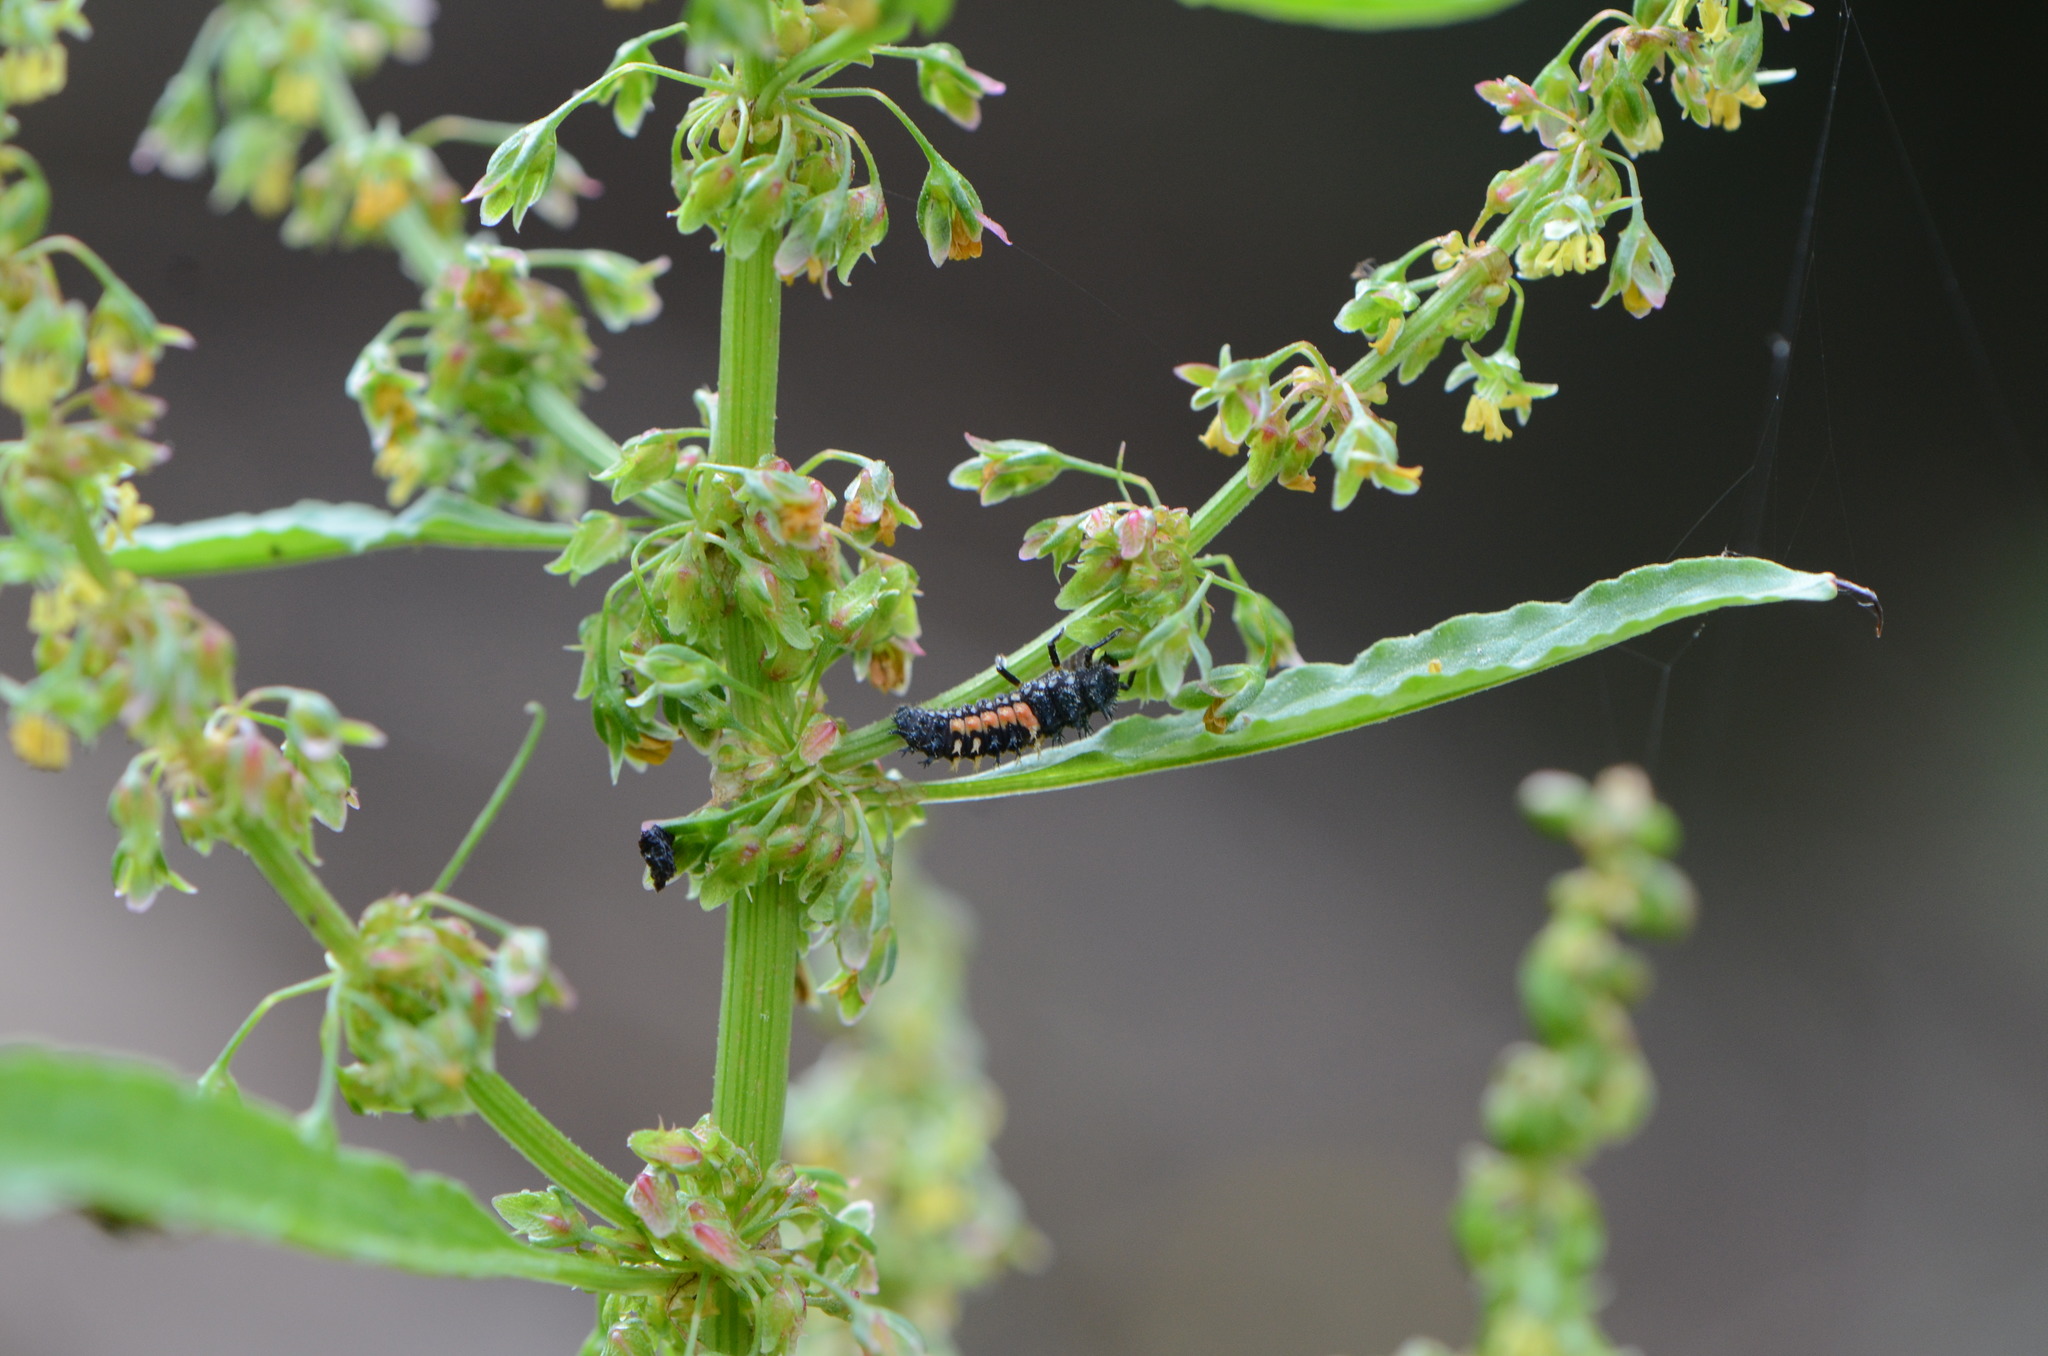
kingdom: Animalia
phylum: Arthropoda
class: Insecta
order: Coleoptera
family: Coccinellidae
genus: Harmonia
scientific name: Harmonia axyridis
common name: Harlequin ladybird
